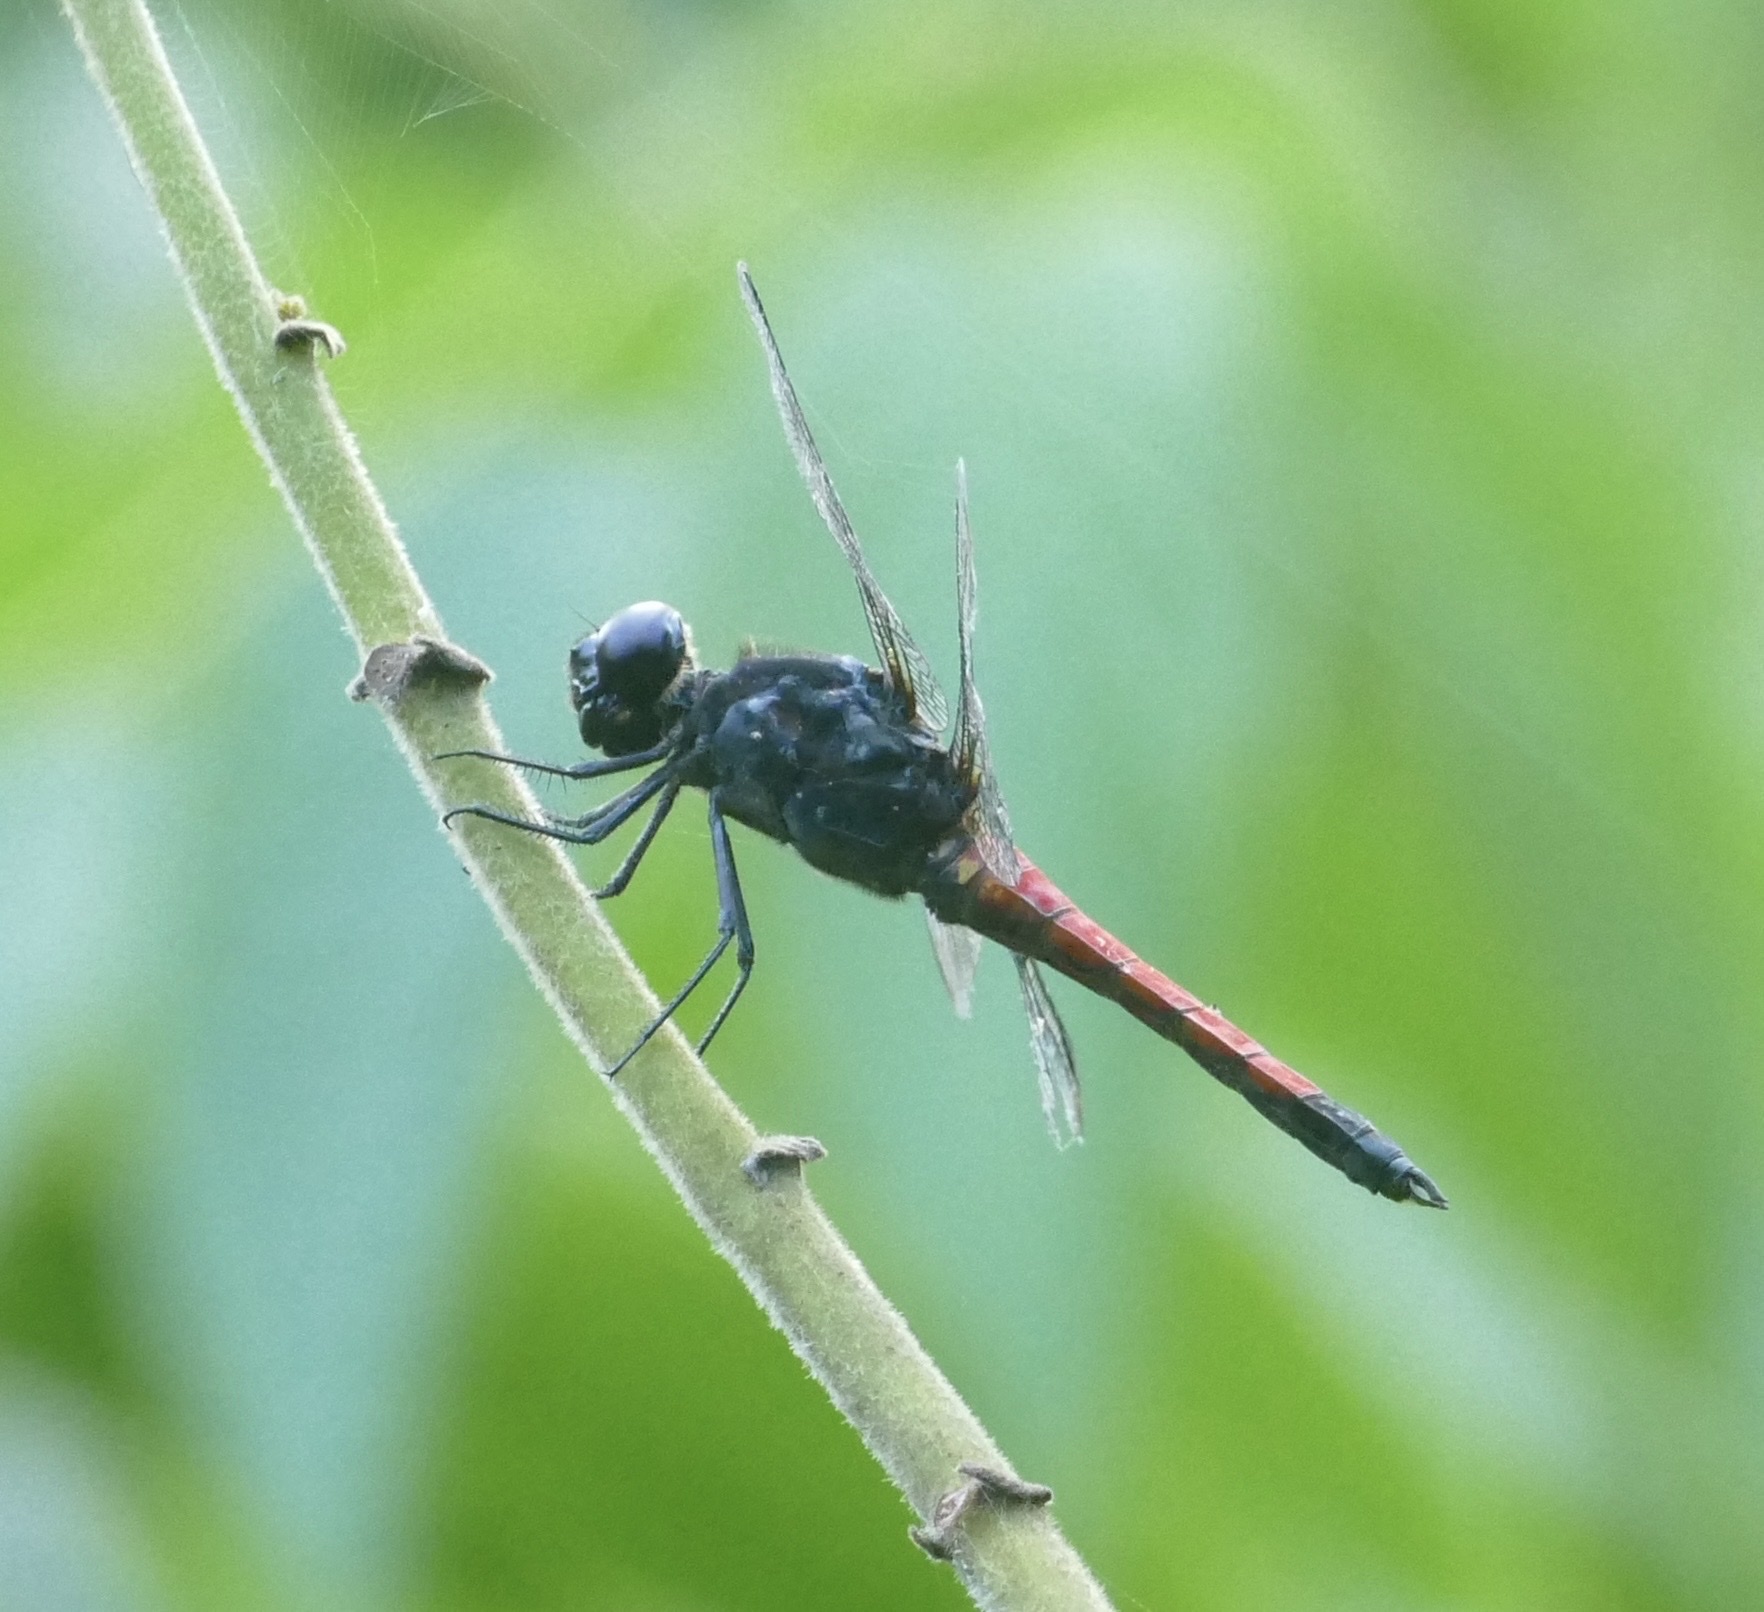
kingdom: Animalia
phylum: Arthropoda
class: Insecta
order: Odonata
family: Libellulidae
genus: Protorthemis
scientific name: Protorthemis coronata
